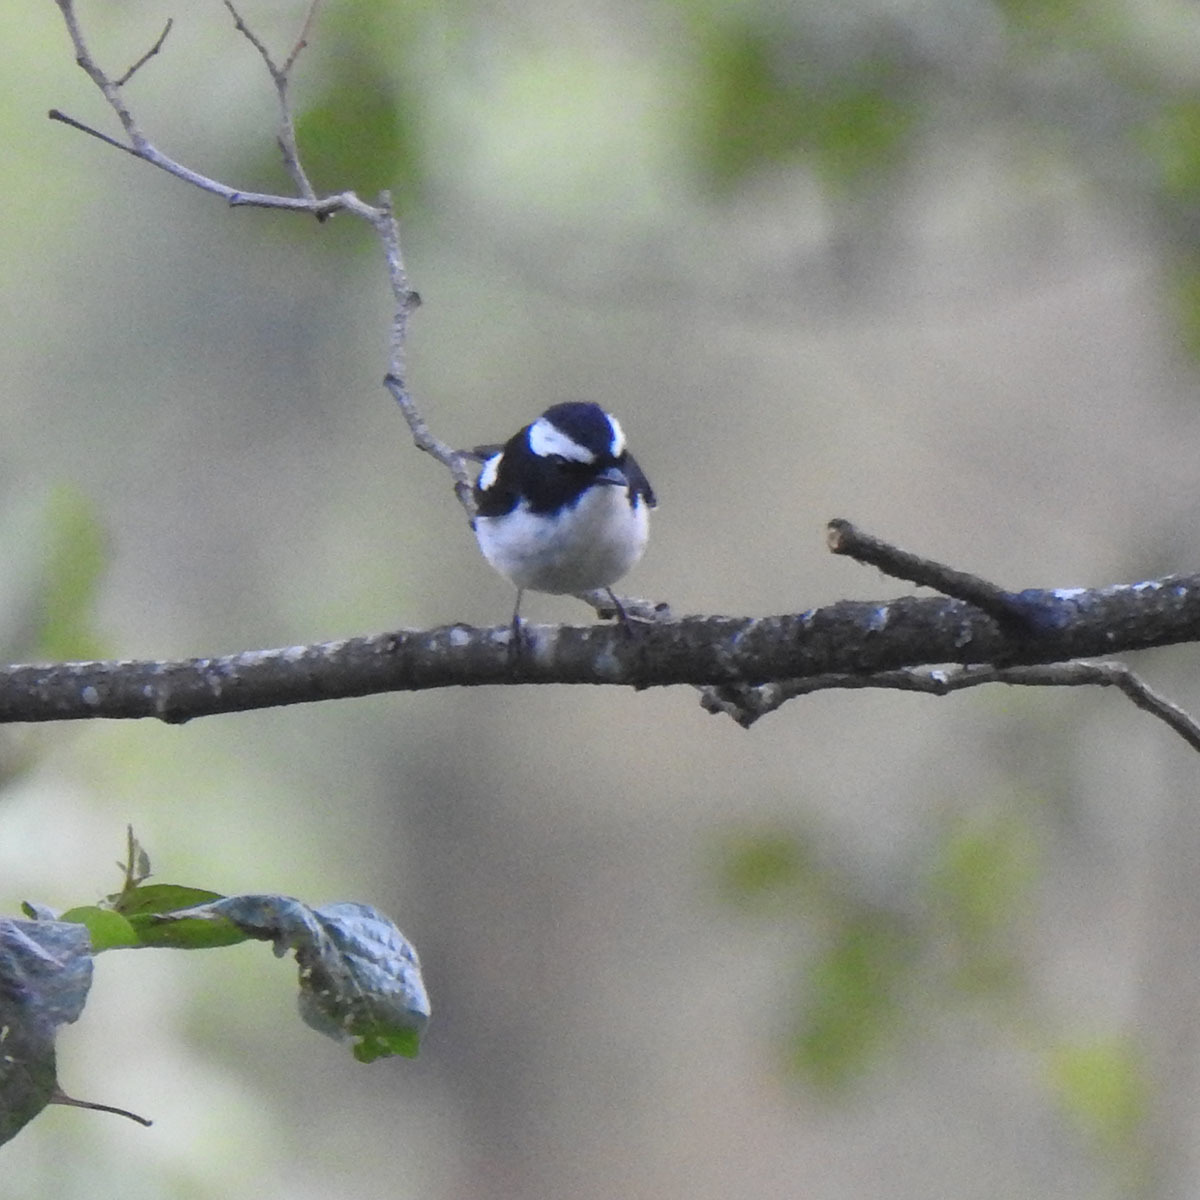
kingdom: Animalia
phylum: Chordata
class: Aves
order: Passeriformes
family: Muscicapidae
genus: Ficedula
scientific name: Ficedula westermanni
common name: Little pied flycatcher
